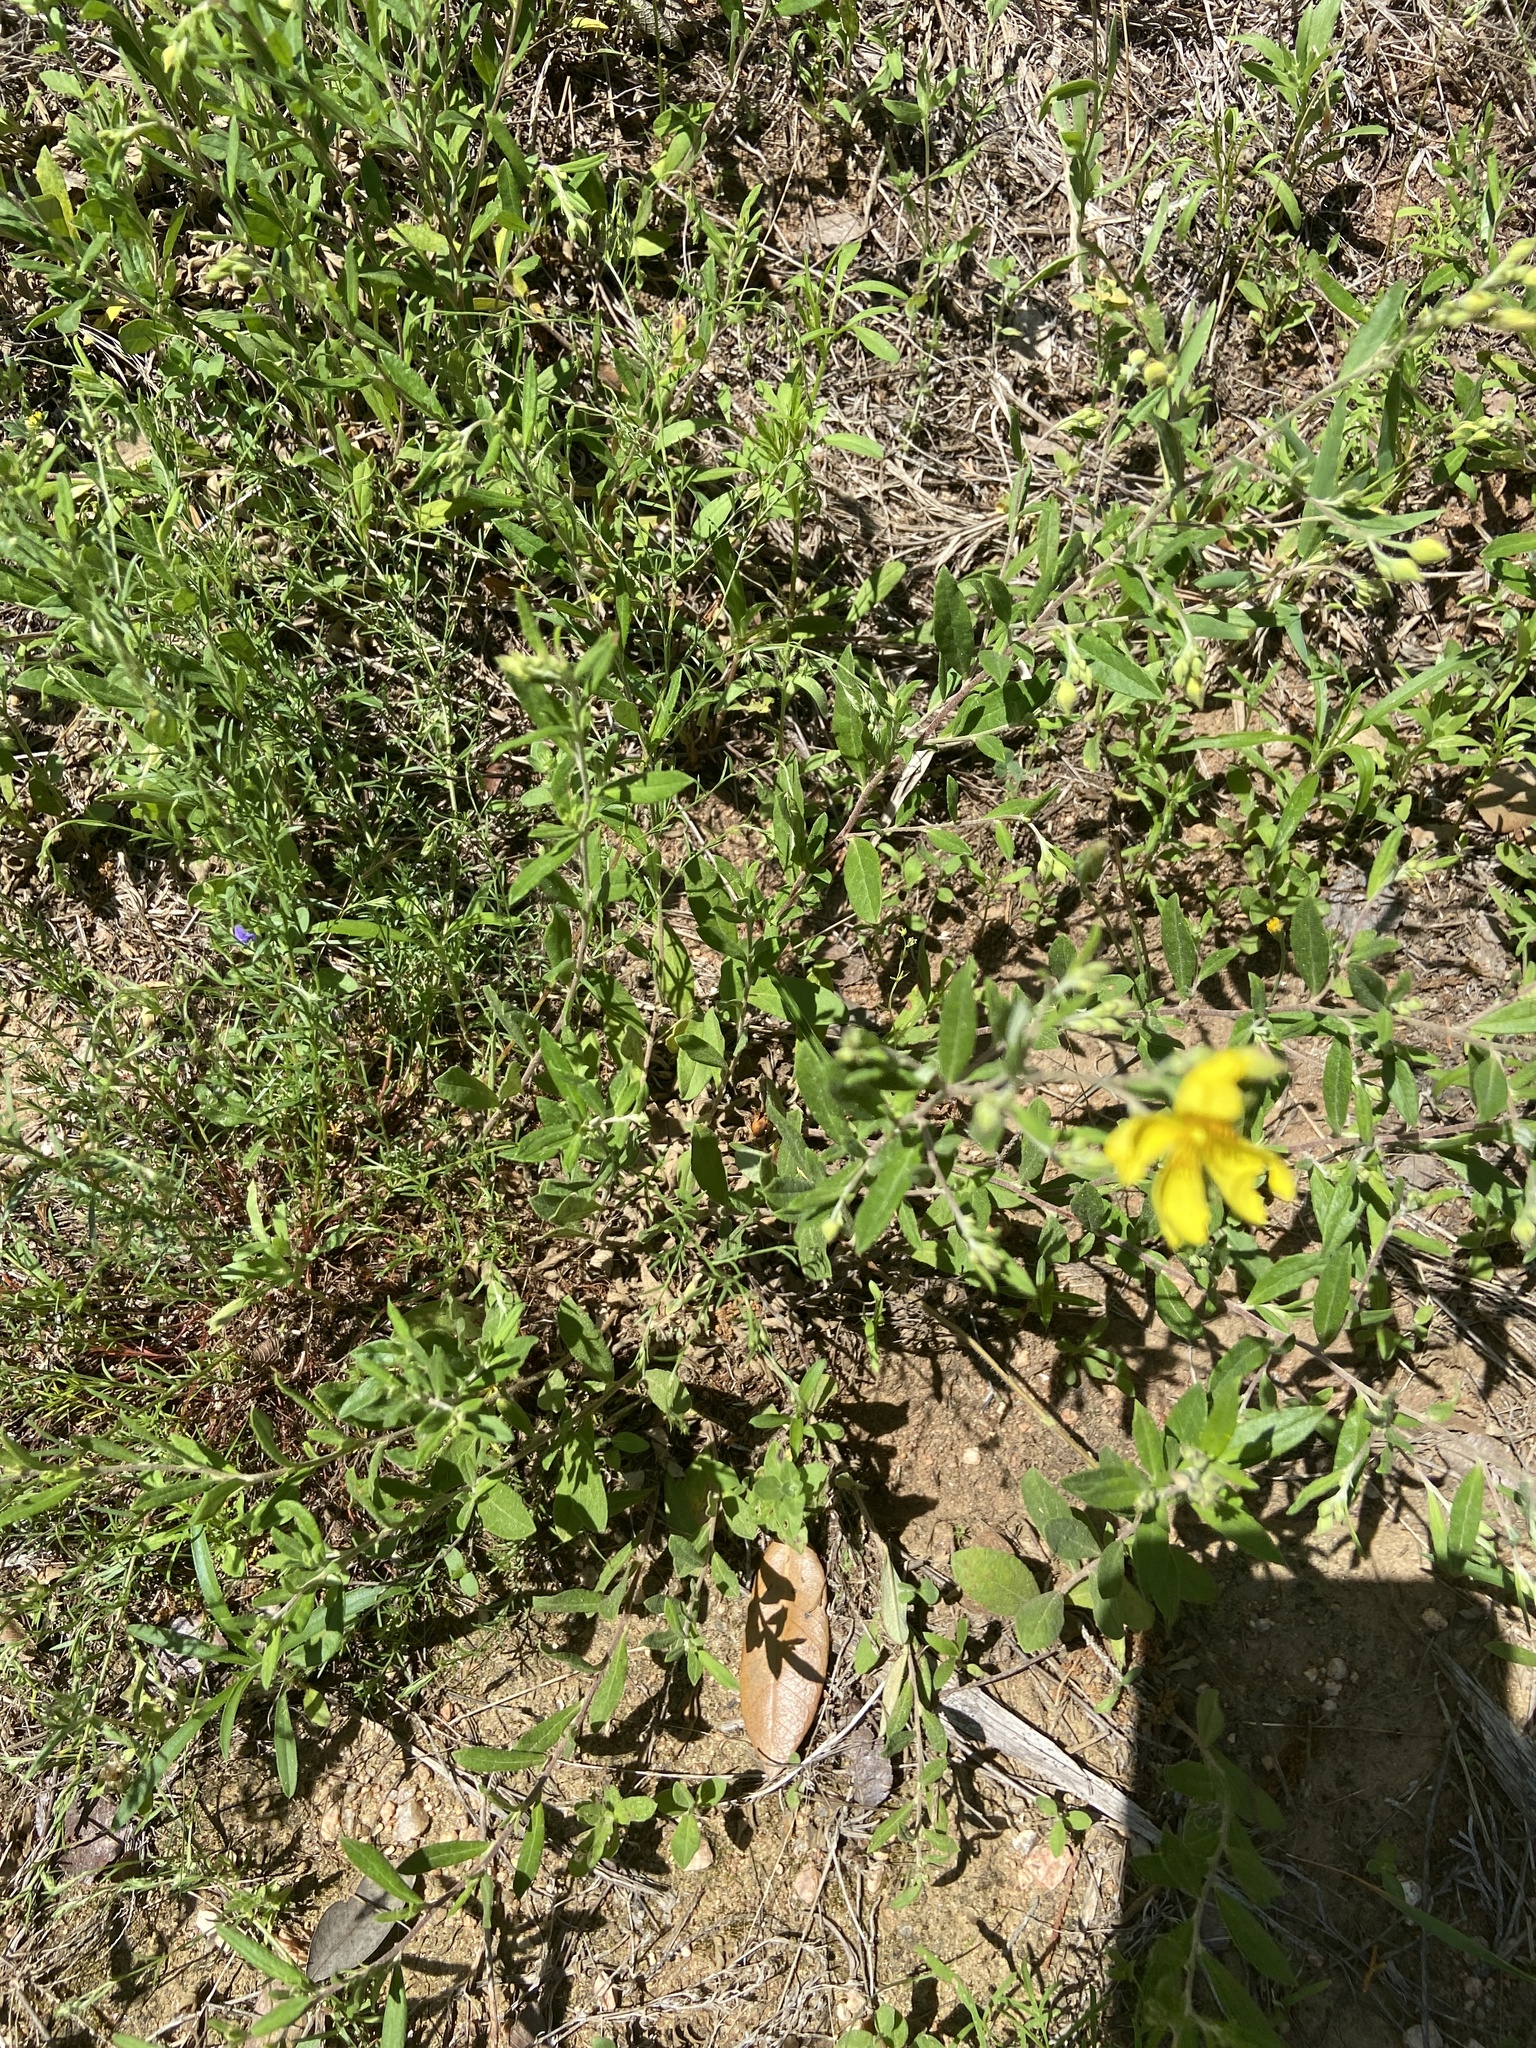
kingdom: Plantae
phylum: Tracheophyta
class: Magnoliopsida
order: Malvales
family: Cistaceae
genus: Crocanthemum
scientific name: Crocanthemum georgianum
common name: Georgia frostweed
